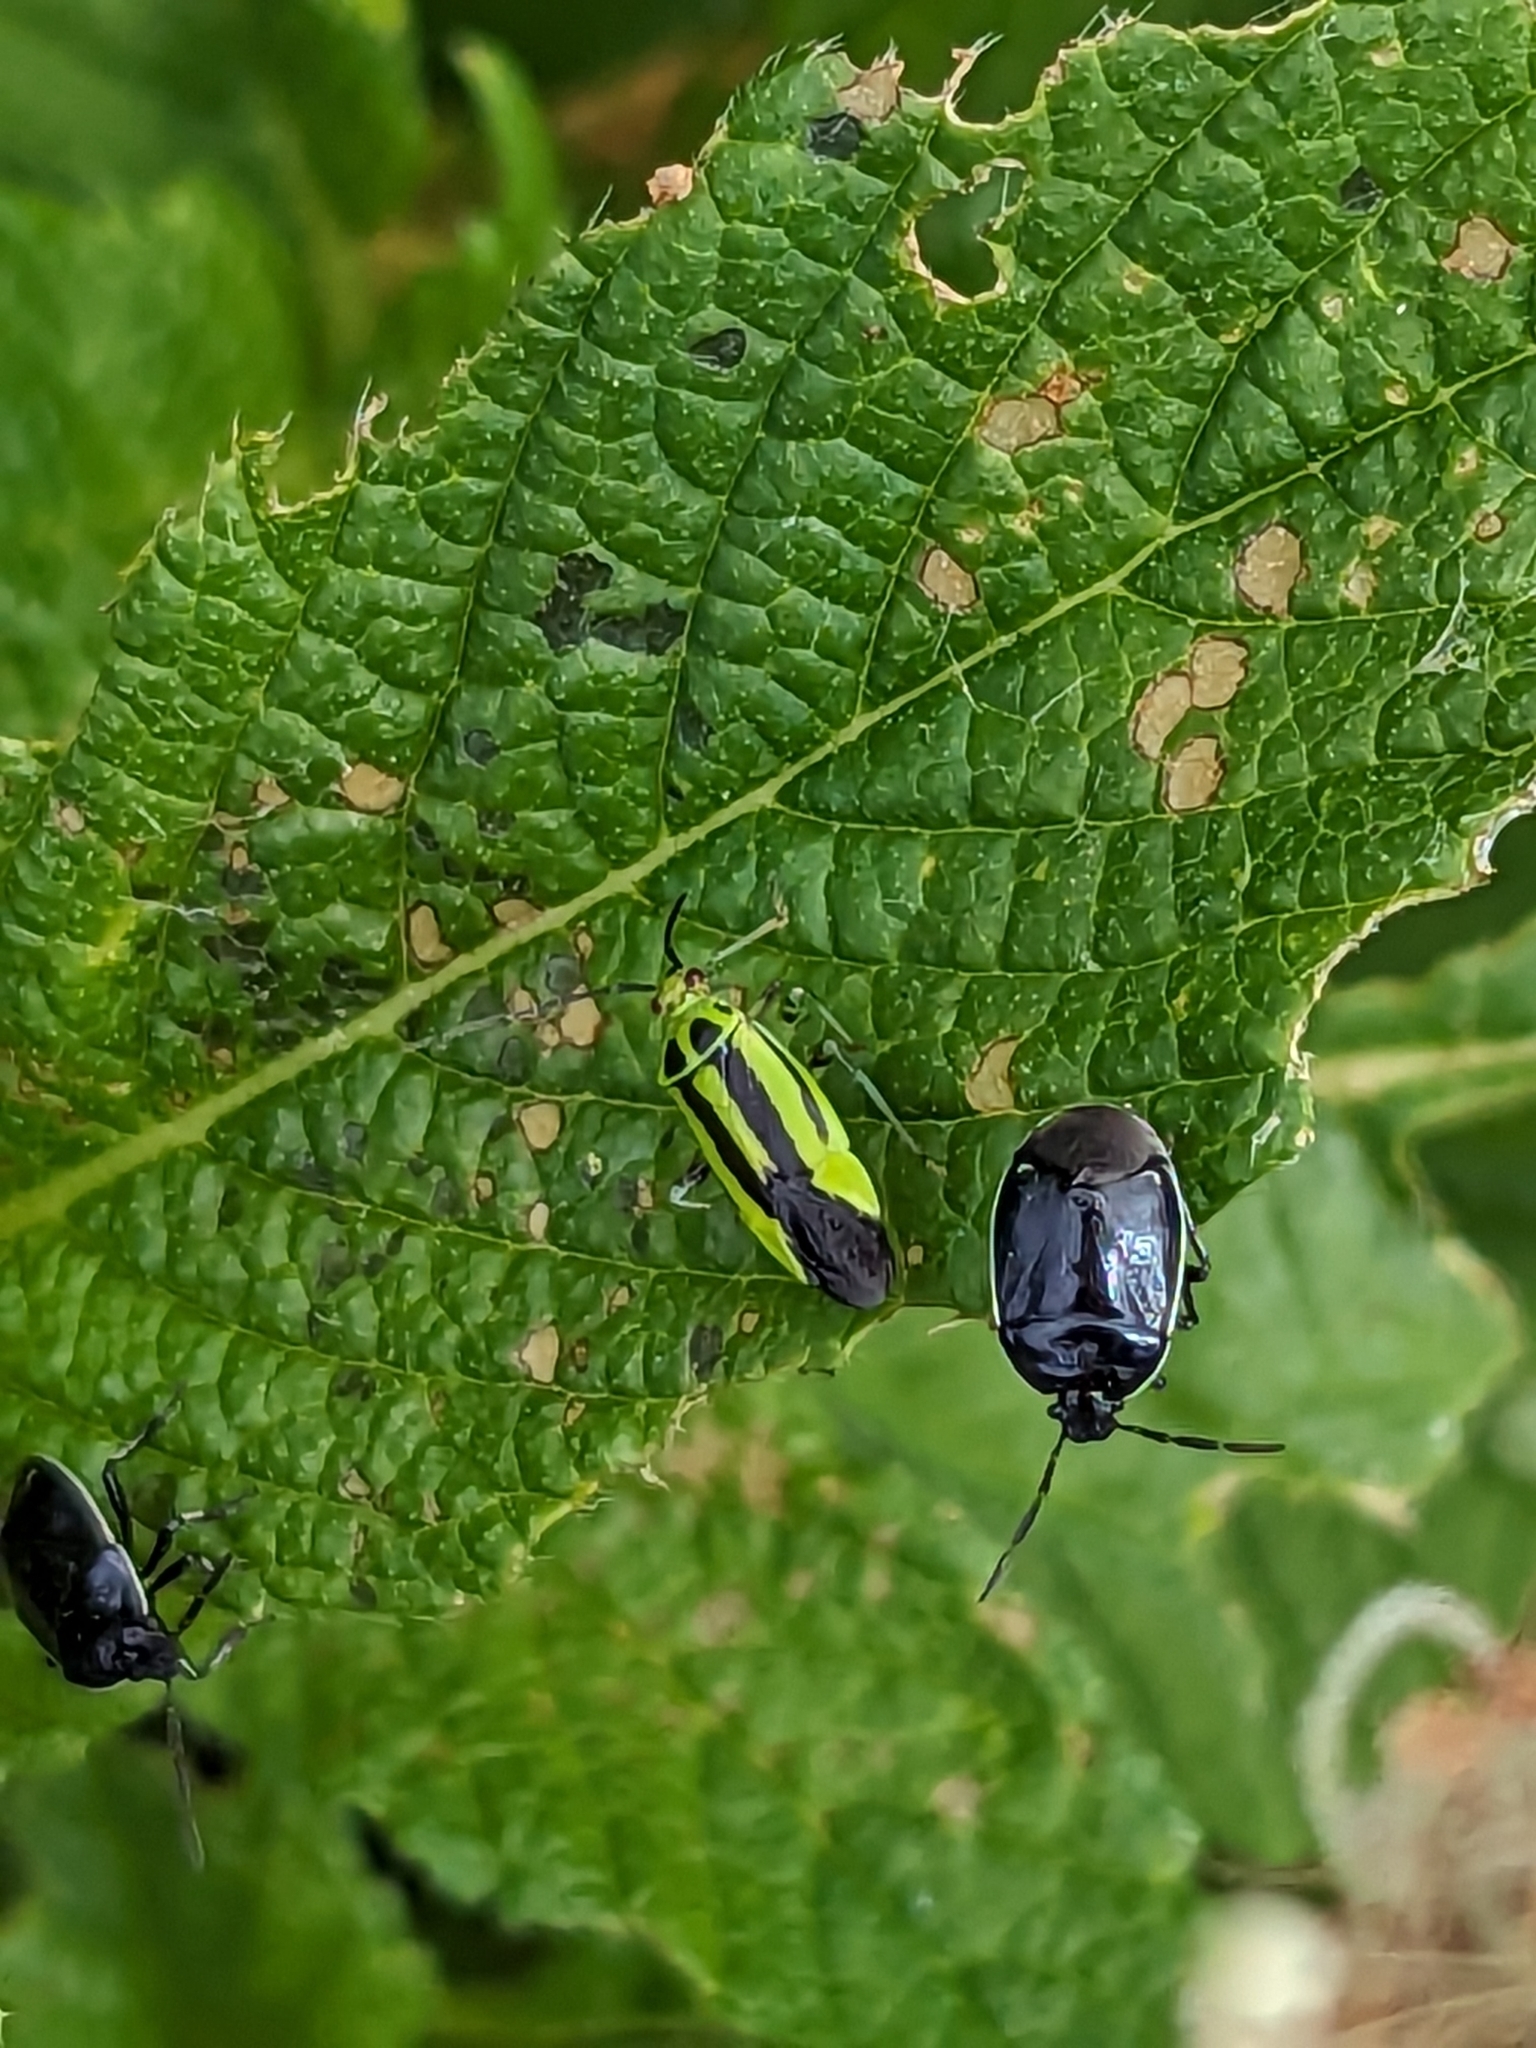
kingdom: Animalia
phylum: Arthropoda
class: Insecta
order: Hemiptera
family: Cydnidae
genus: Sehirus
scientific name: Sehirus cinctus
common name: White-margined burrower bug
